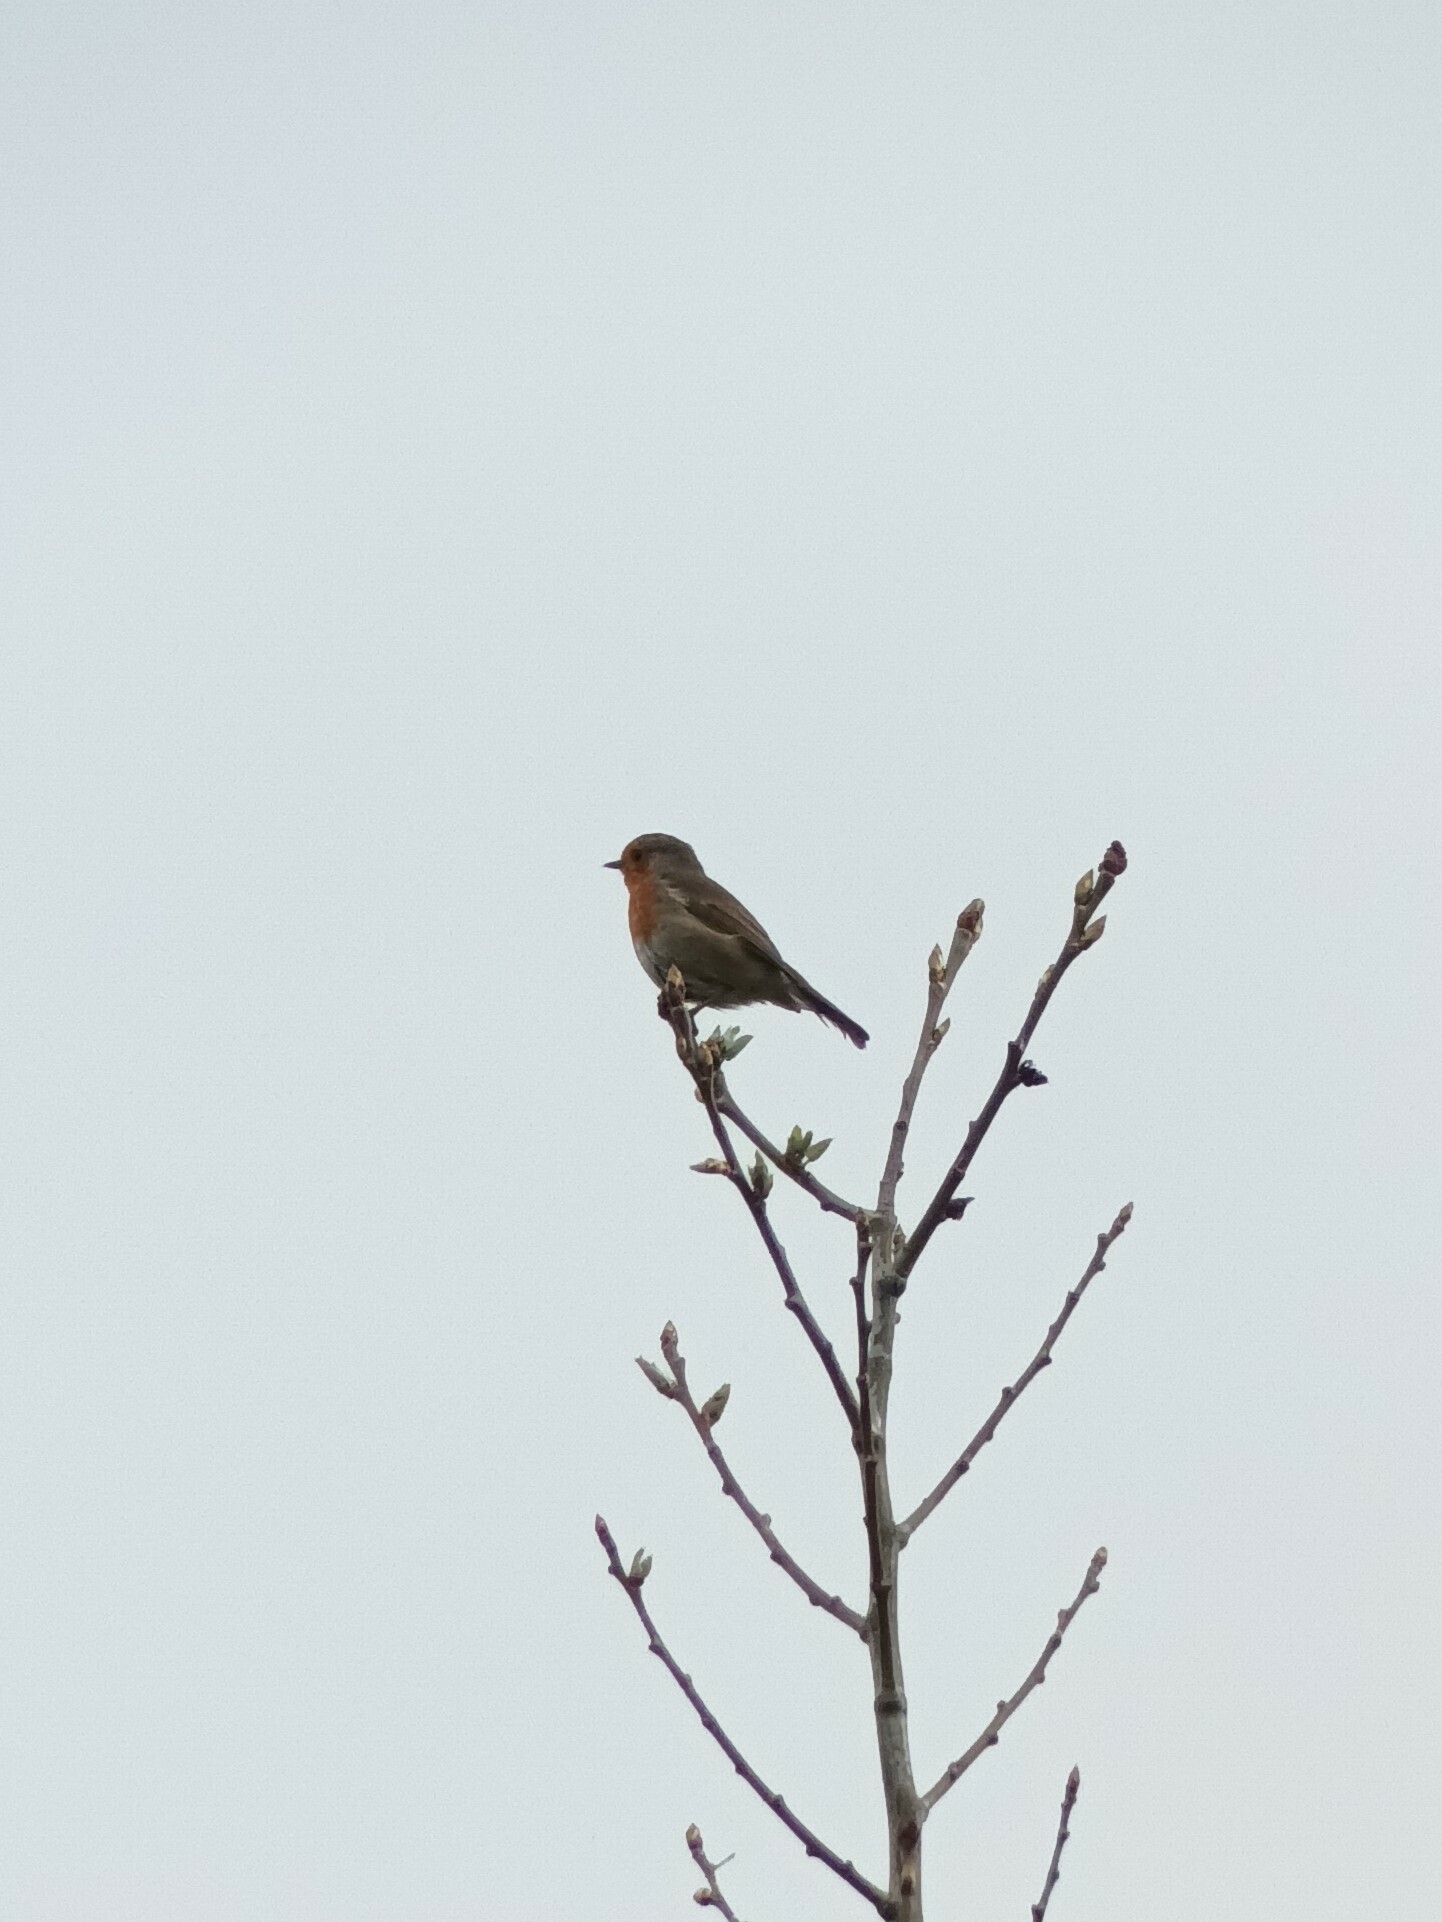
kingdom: Animalia
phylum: Chordata
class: Aves
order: Passeriformes
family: Muscicapidae
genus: Erithacus
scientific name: Erithacus rubecula
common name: European robin
